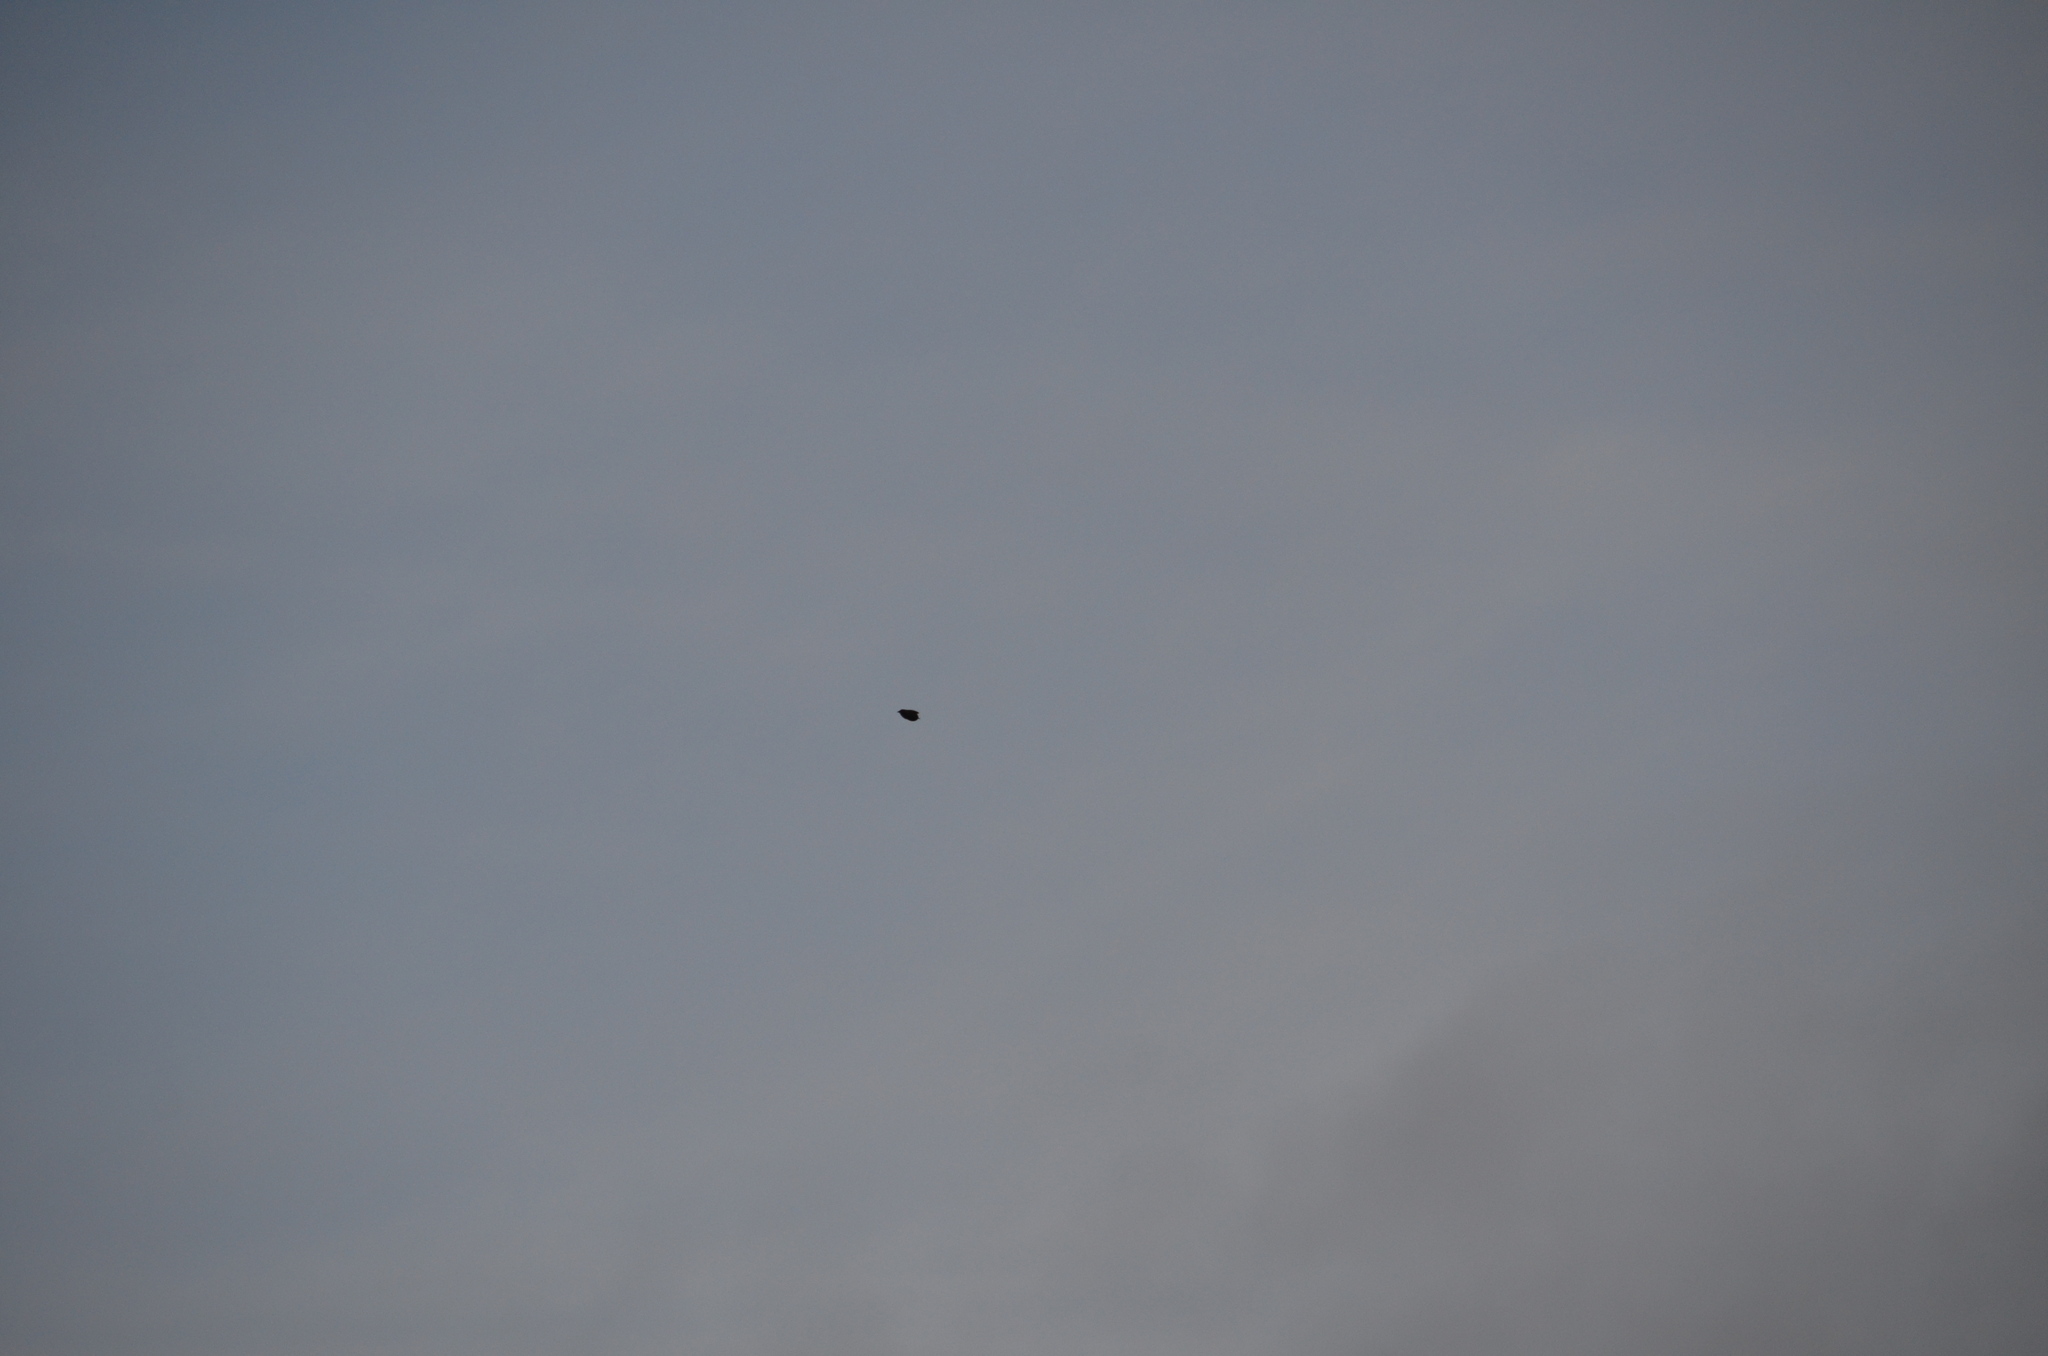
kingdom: Animalia
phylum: Chordata
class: Aves
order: Passeriformes
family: Sturnidae
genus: Sturnus
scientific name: Sturnus vulgaris
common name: Common starling
